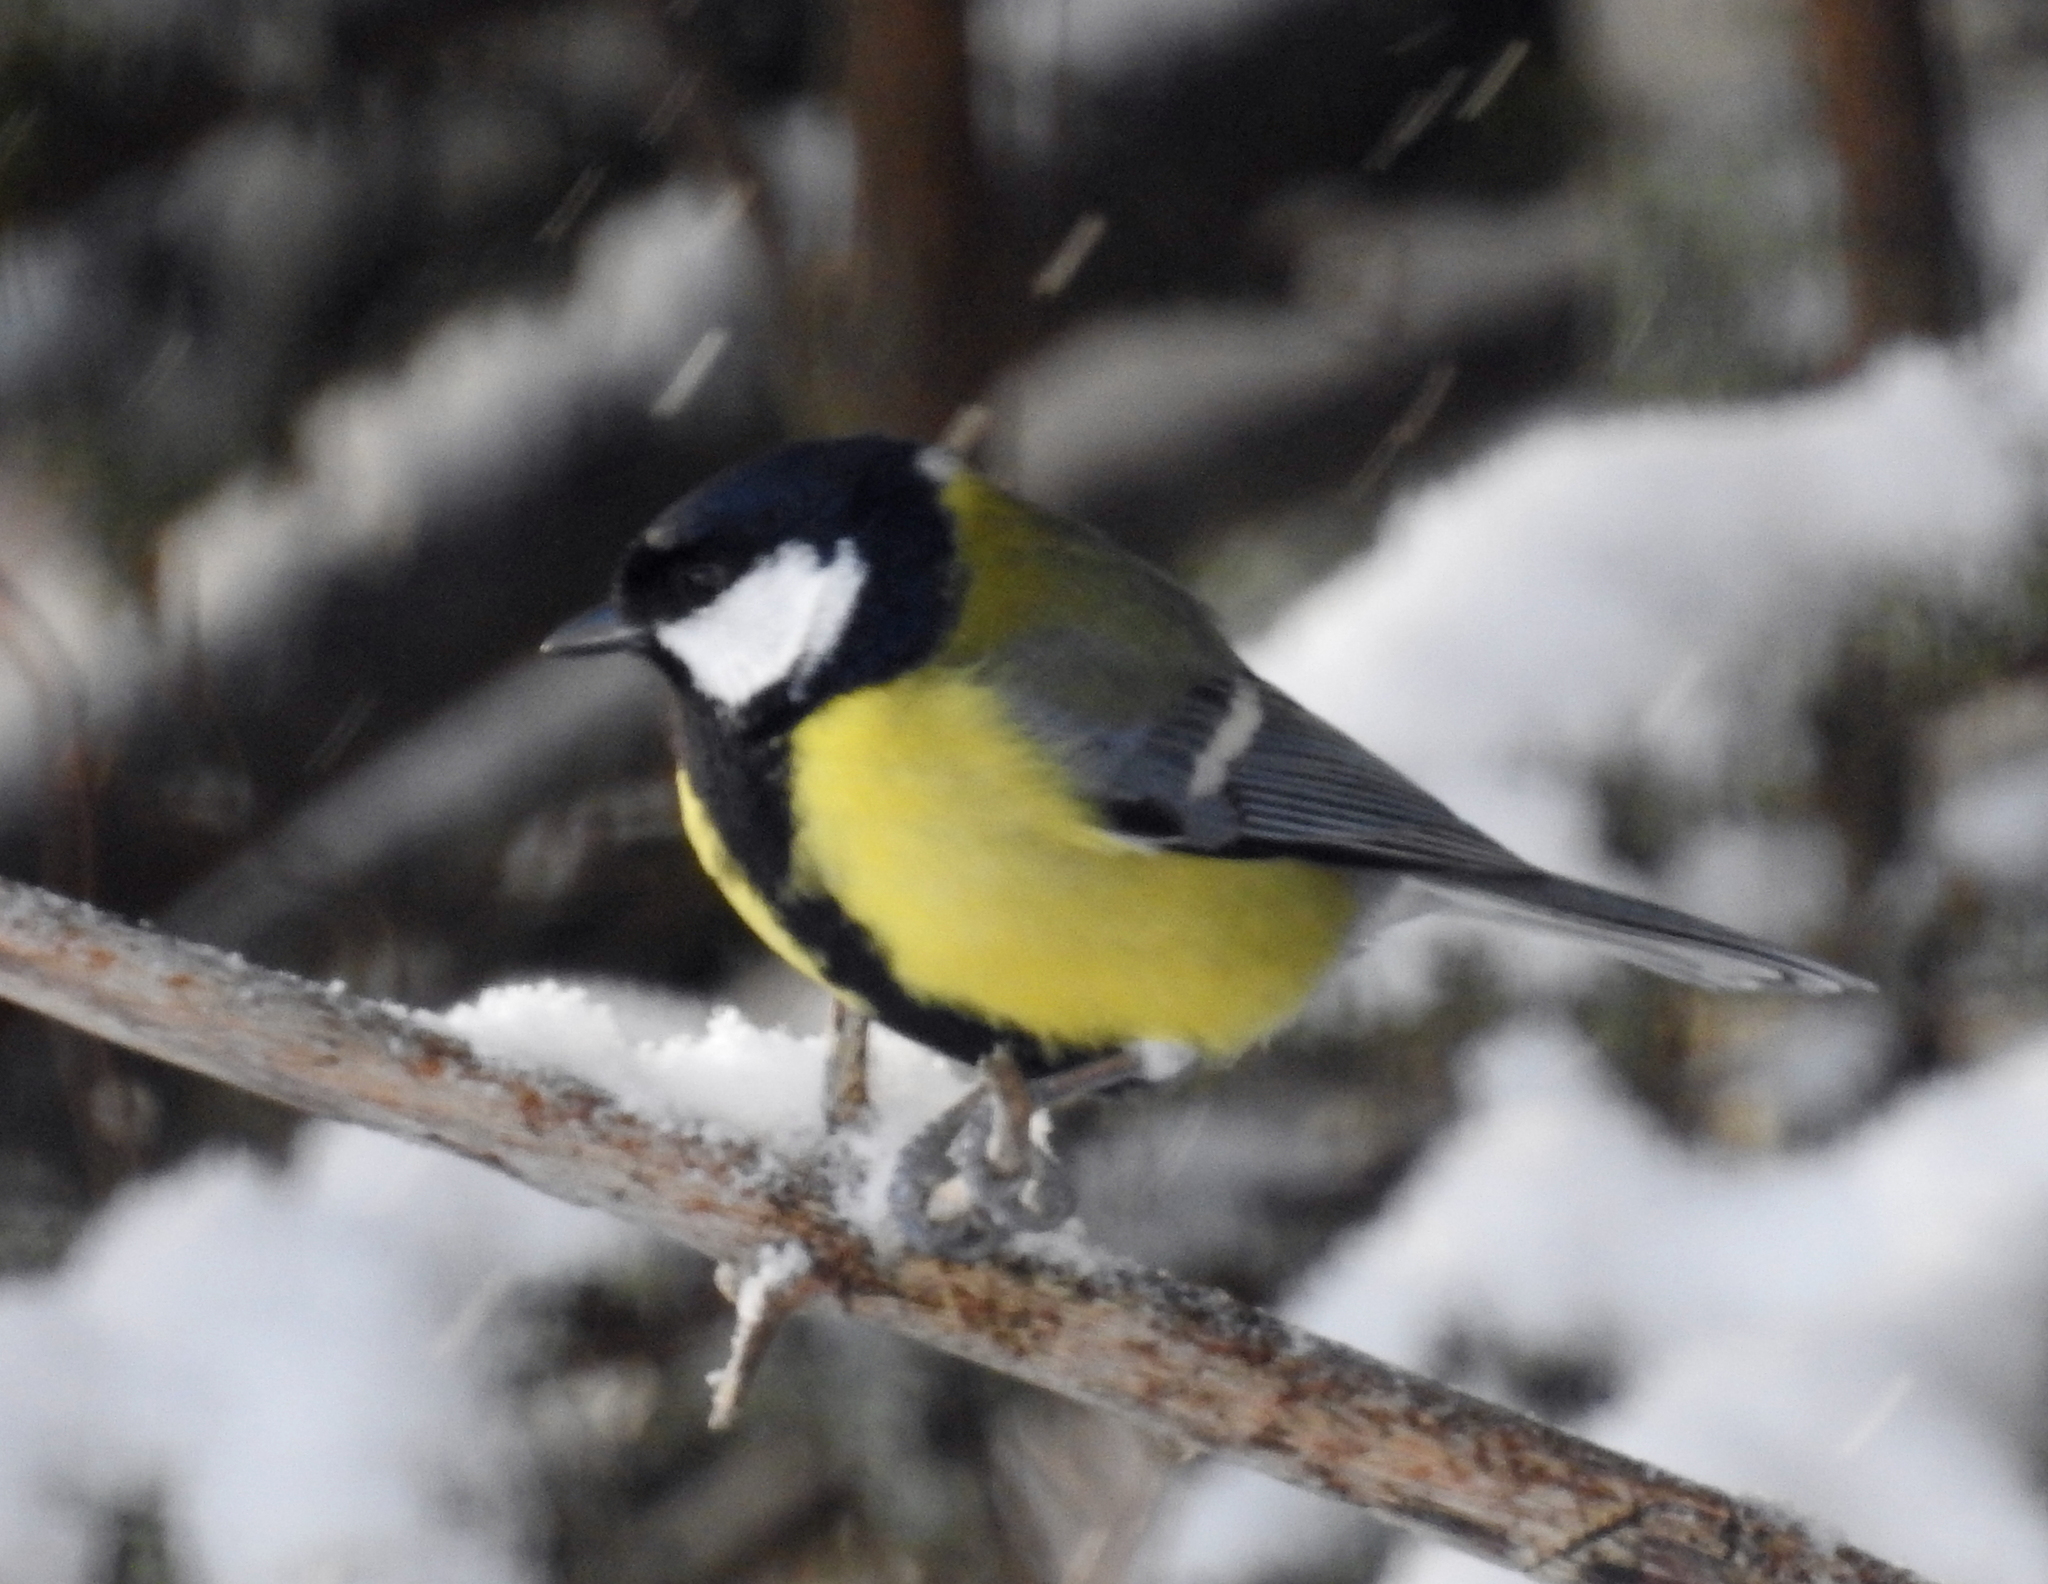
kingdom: Animalia
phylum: Chordata
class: Aves
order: Passeriformes
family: Paridae
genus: Parus
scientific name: Parus major
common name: Great tit
